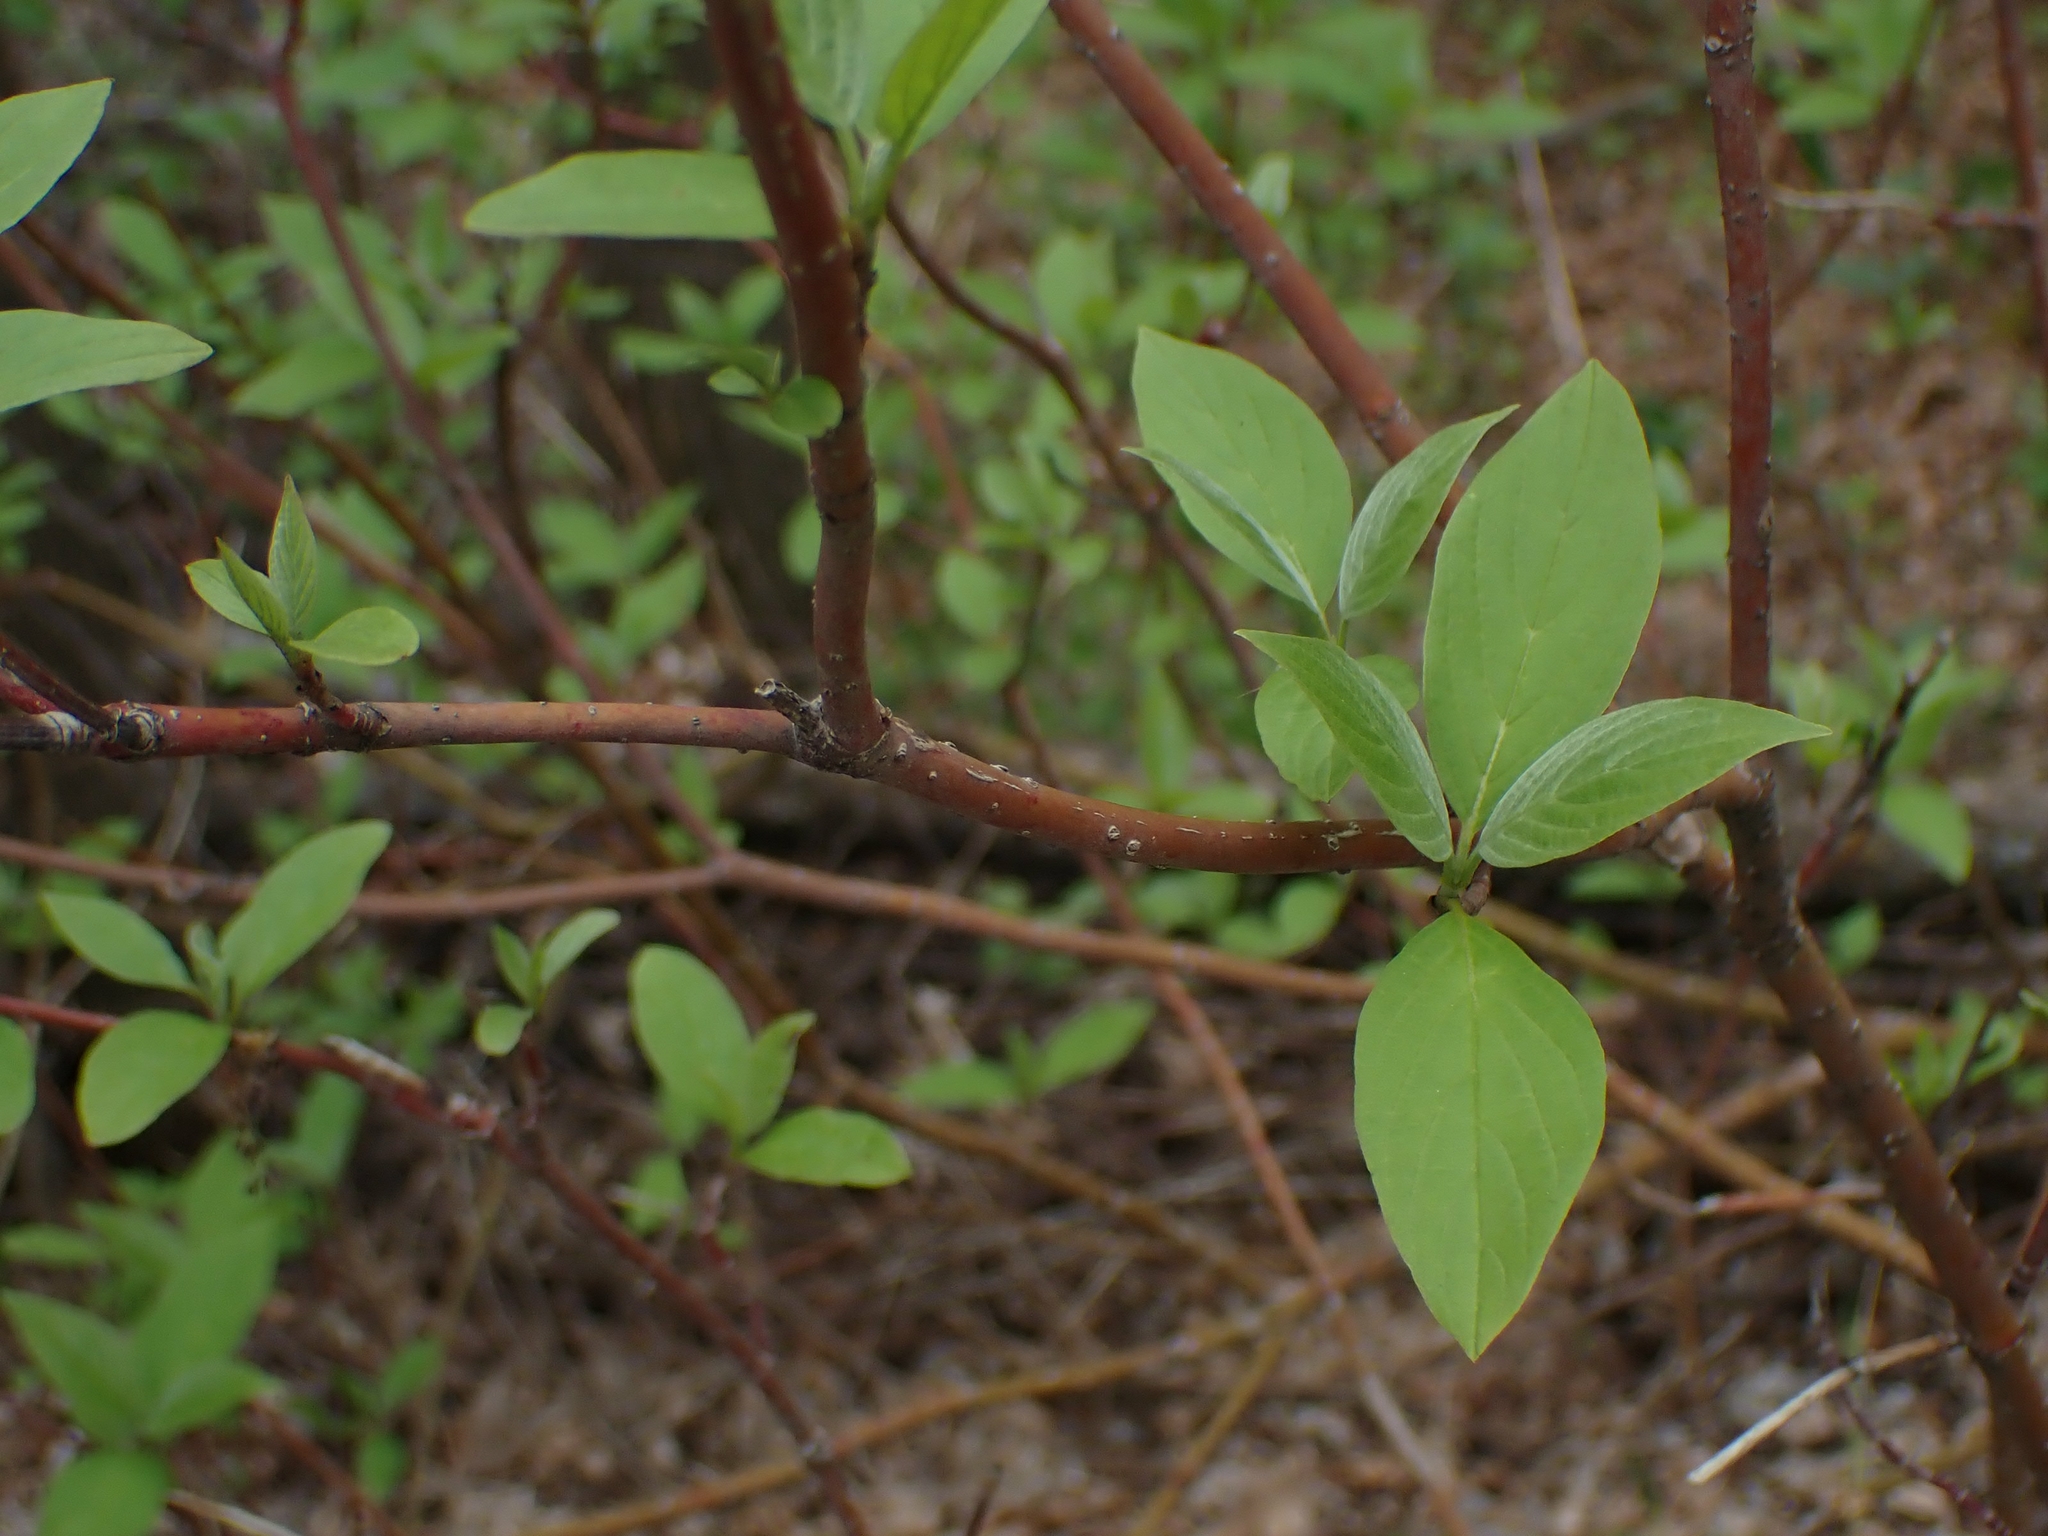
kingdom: Plantae
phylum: Tracheophyta
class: Magnoliopsida
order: Cornales
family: Cornaceae
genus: Cornus
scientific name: Cornus sericea
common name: Red-osier dogwood
